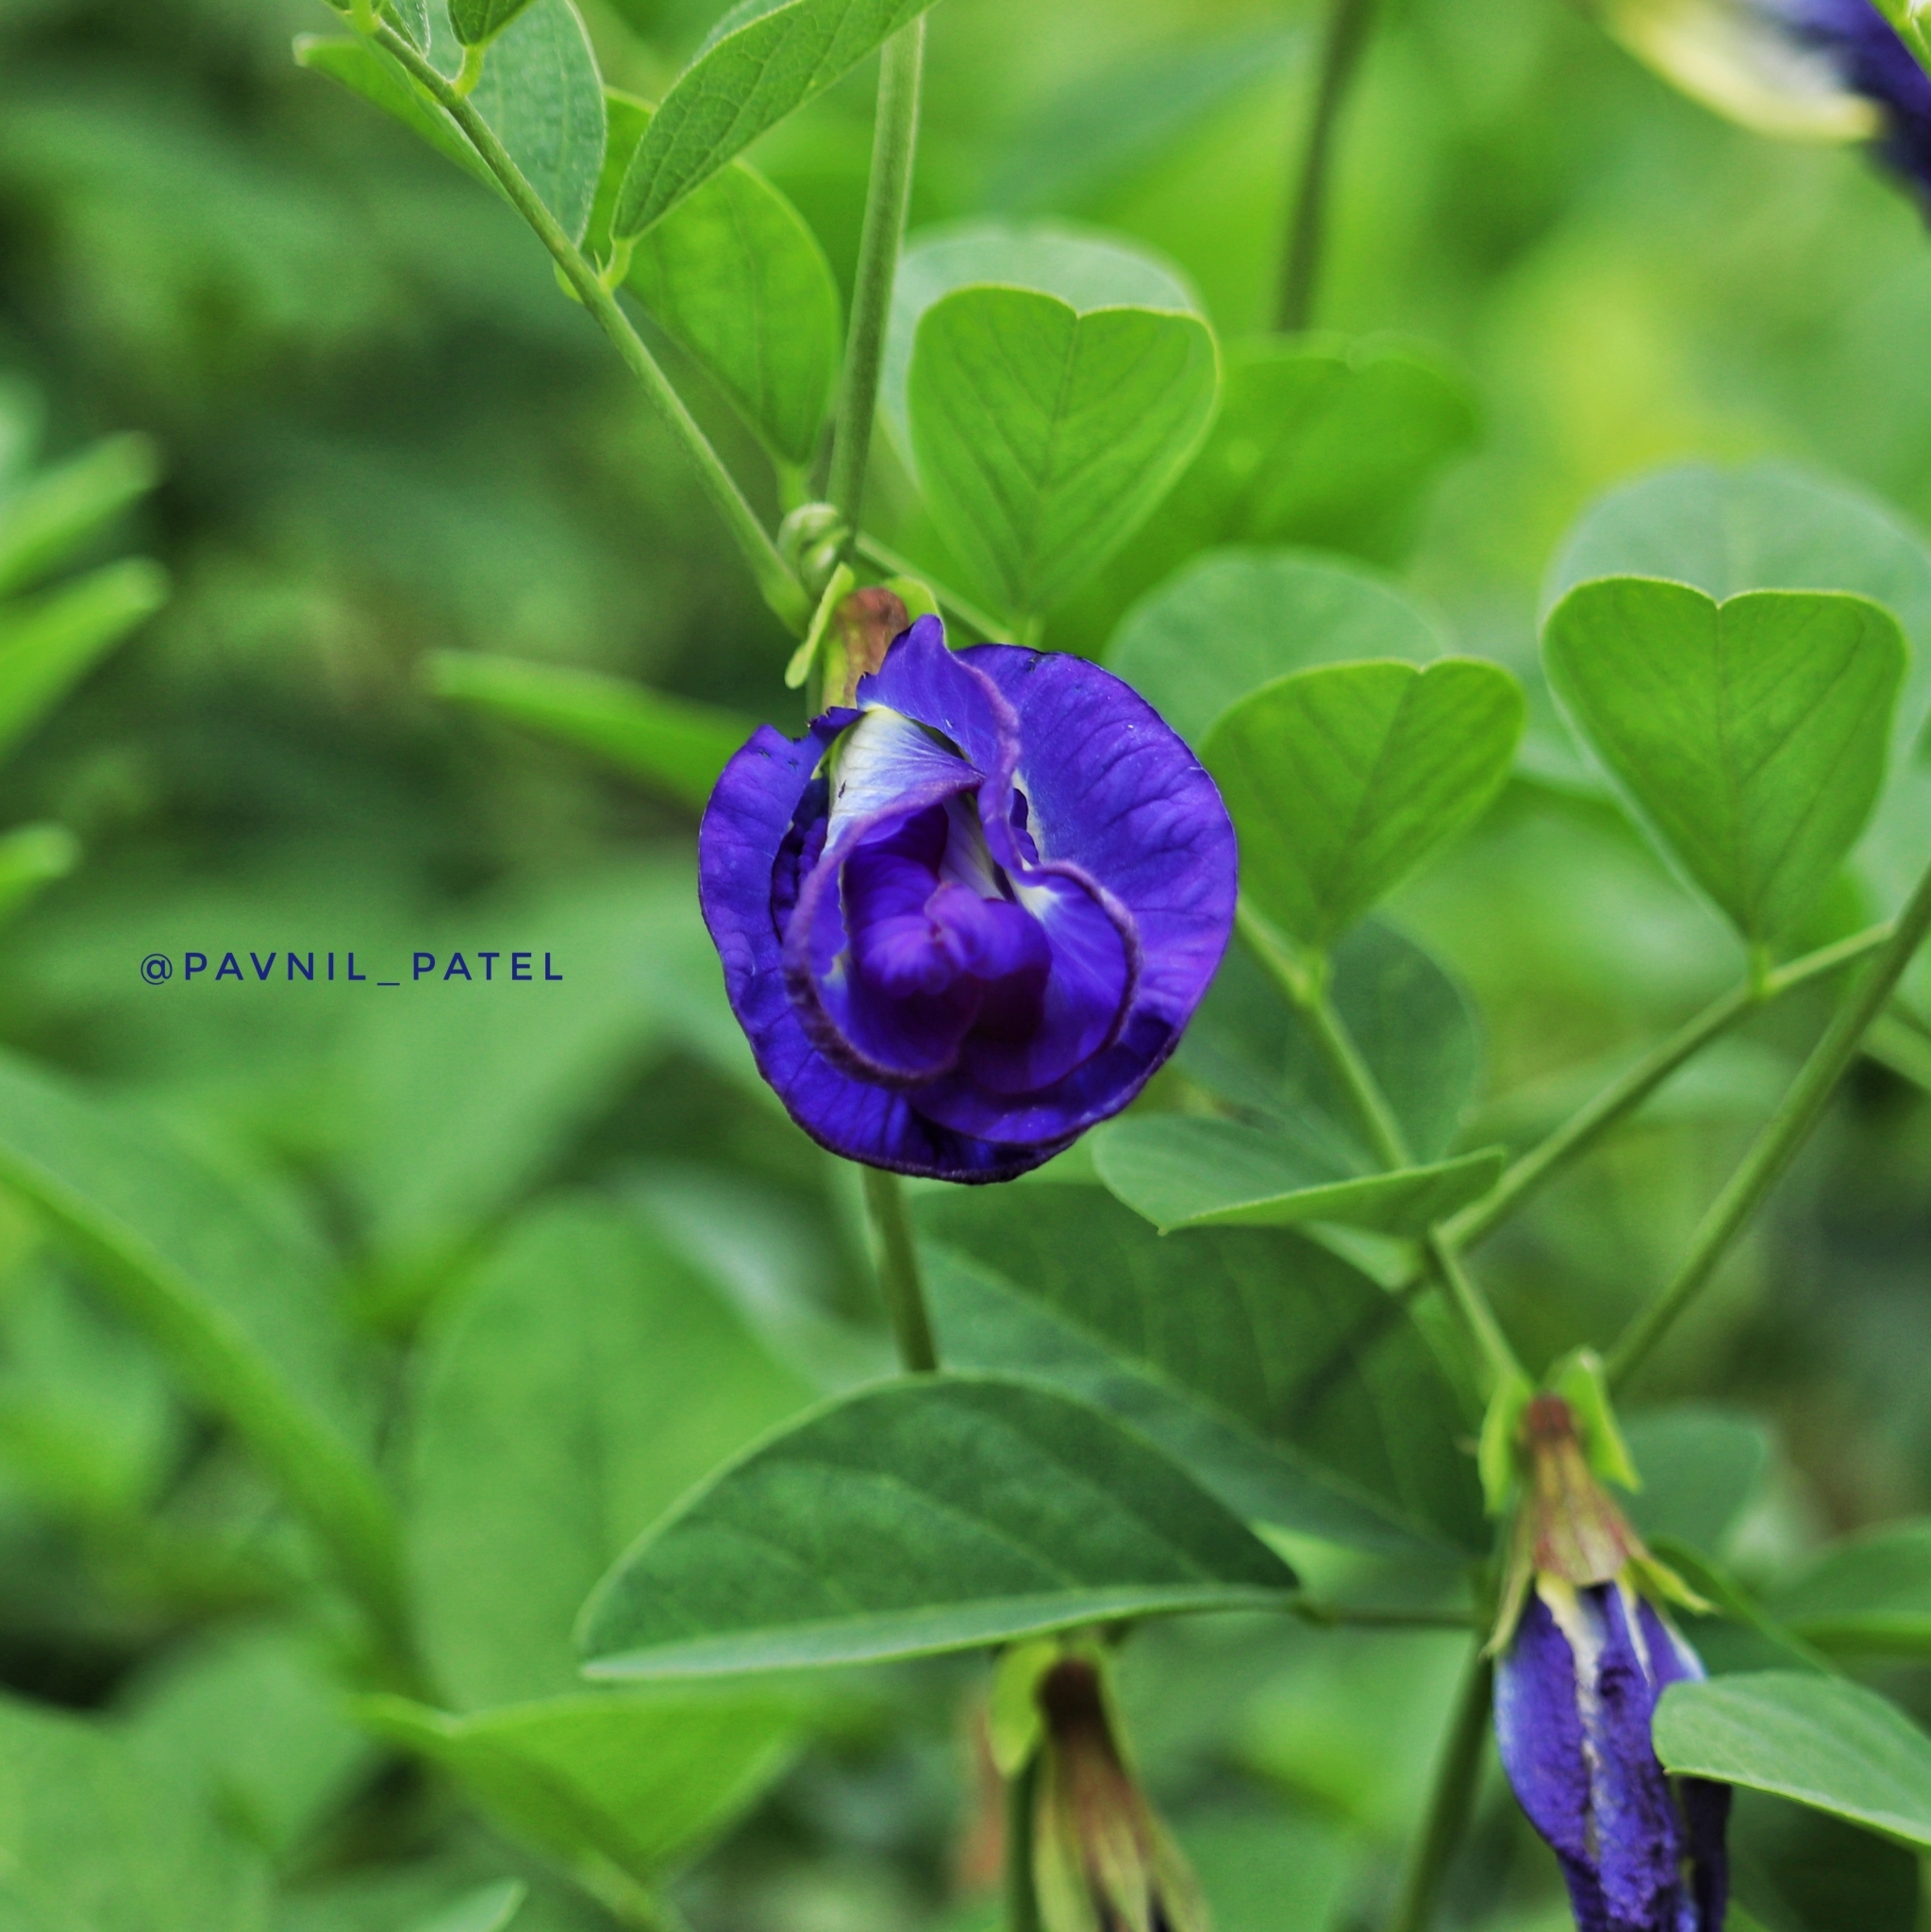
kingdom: Plantae
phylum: Tracheophyta
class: Magnoliopsida
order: Fabales
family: Fabaceae
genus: Clitoria
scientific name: Clitoria ternatea
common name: Asian pigeonwings
